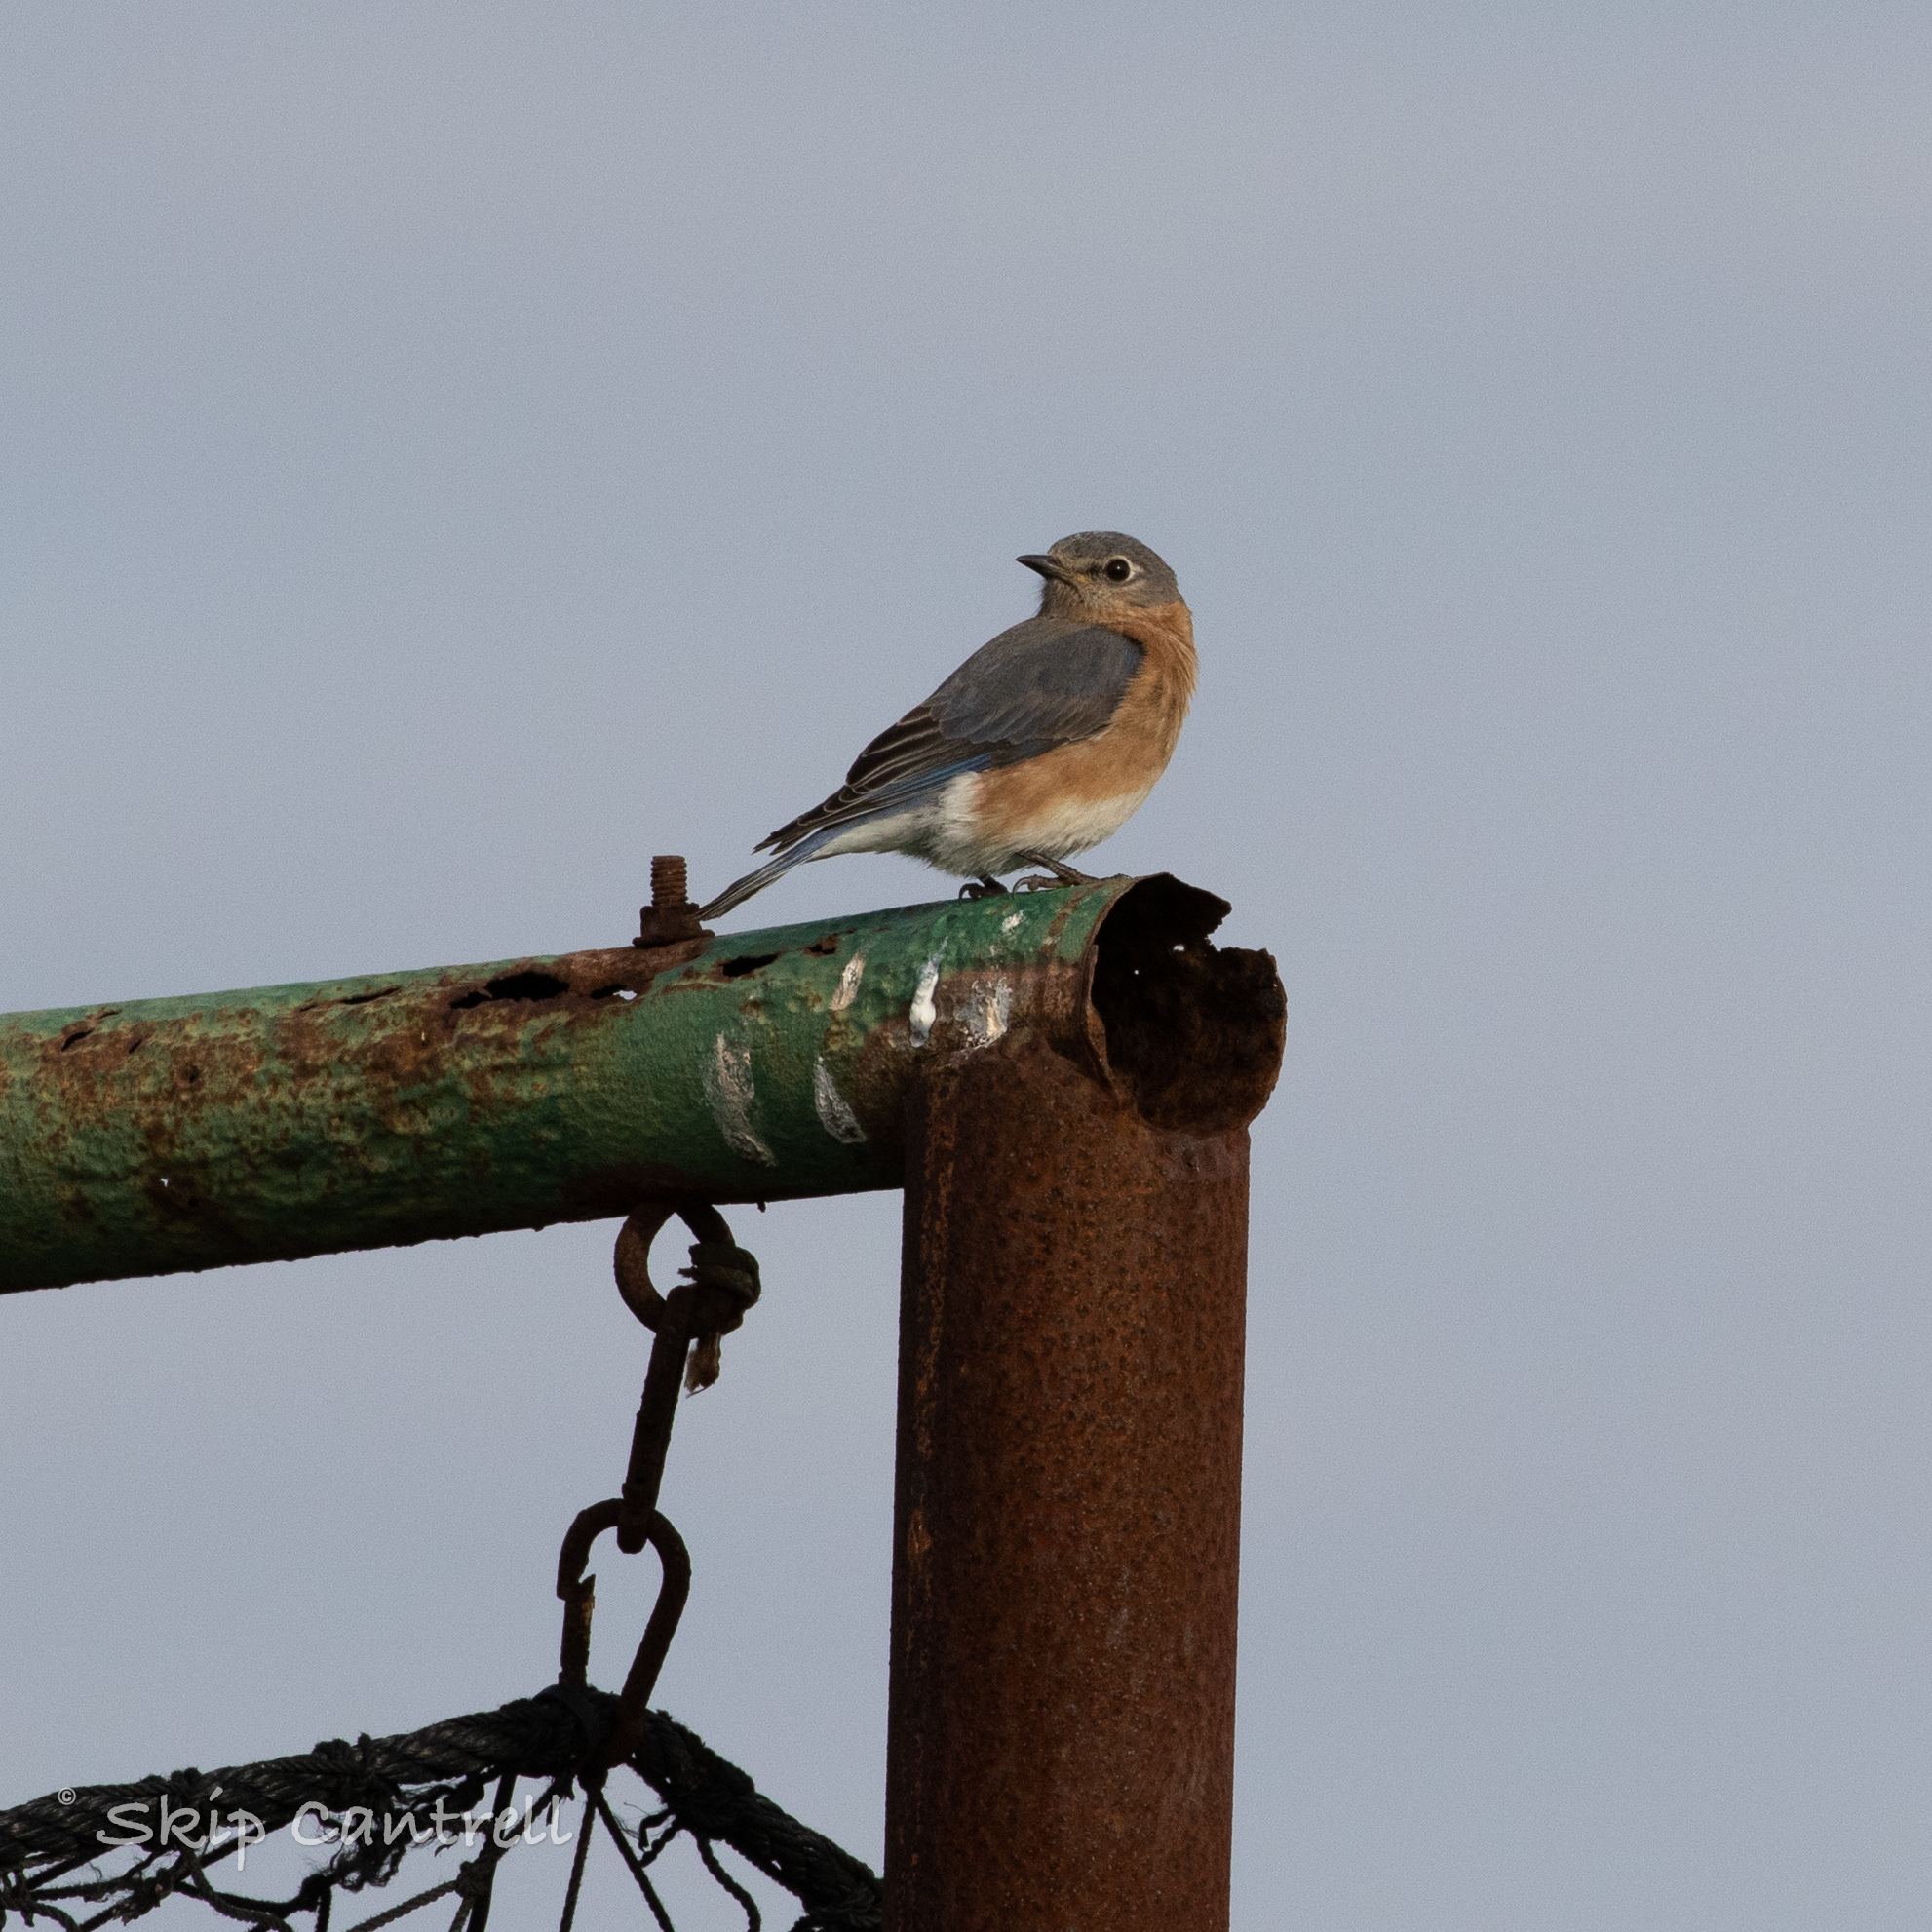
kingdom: Animalia
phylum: Chordata
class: Aves
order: Passeriformes
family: Turdidae
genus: Sialia
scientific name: Sialia sialis
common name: Eastern bluebird
